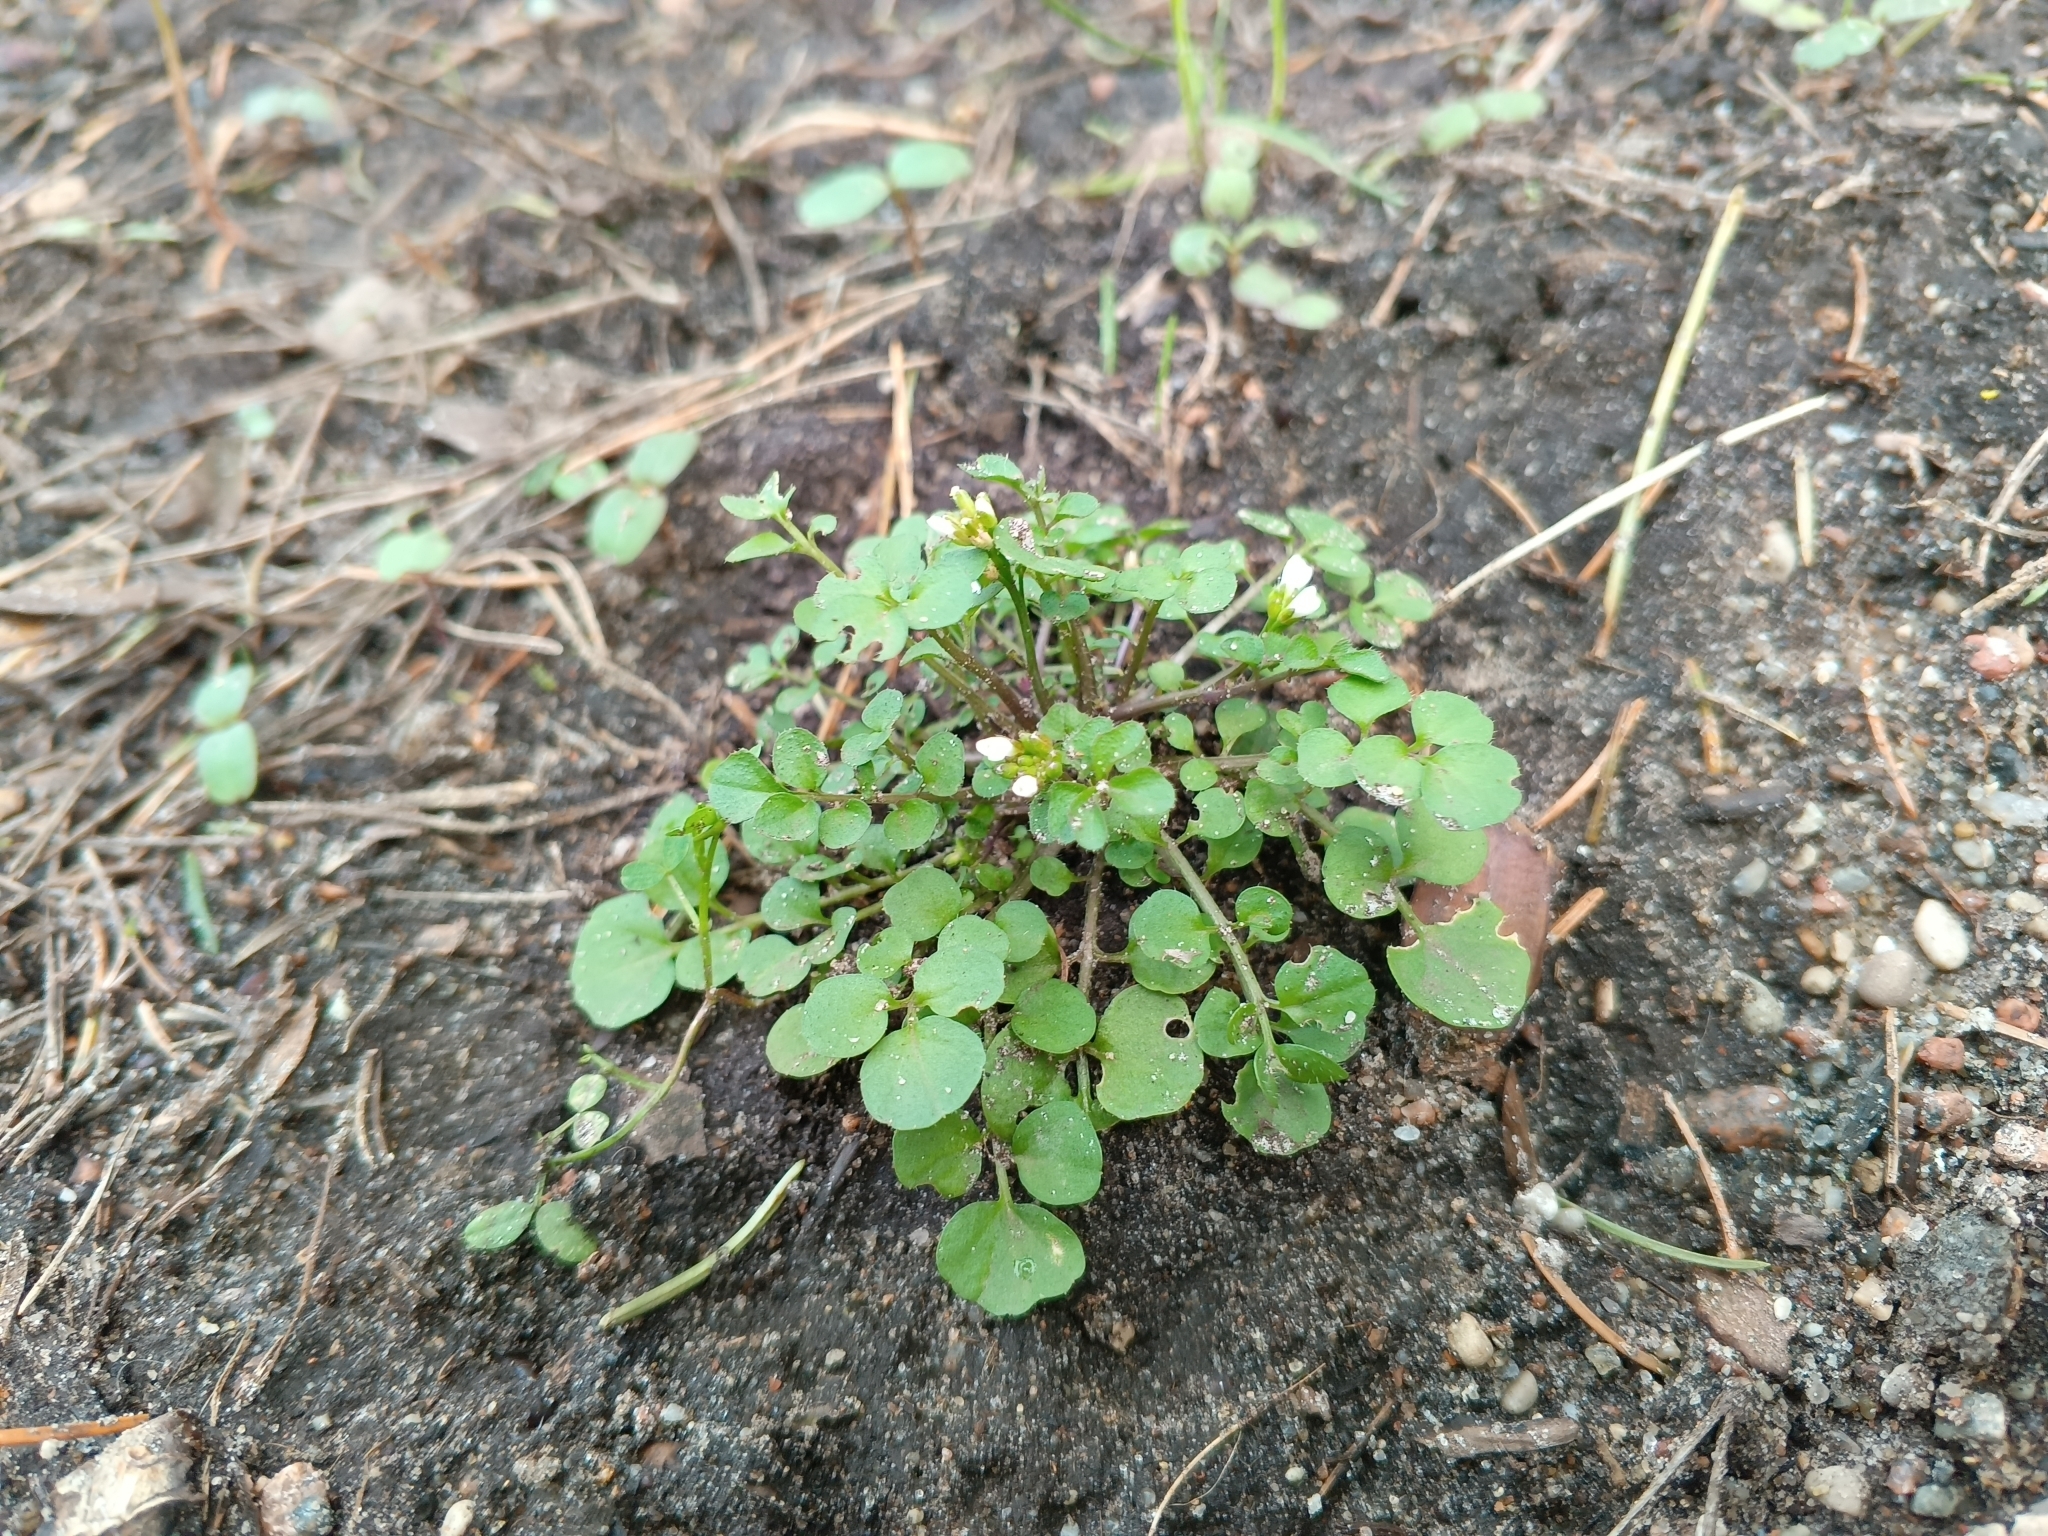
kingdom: Plantae
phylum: Tracheophyta
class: Magnoliopsida
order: Brassicales
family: Brassicaceae
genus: Cardamine
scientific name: Cardamine hirsuta
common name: Hairy bittercress
